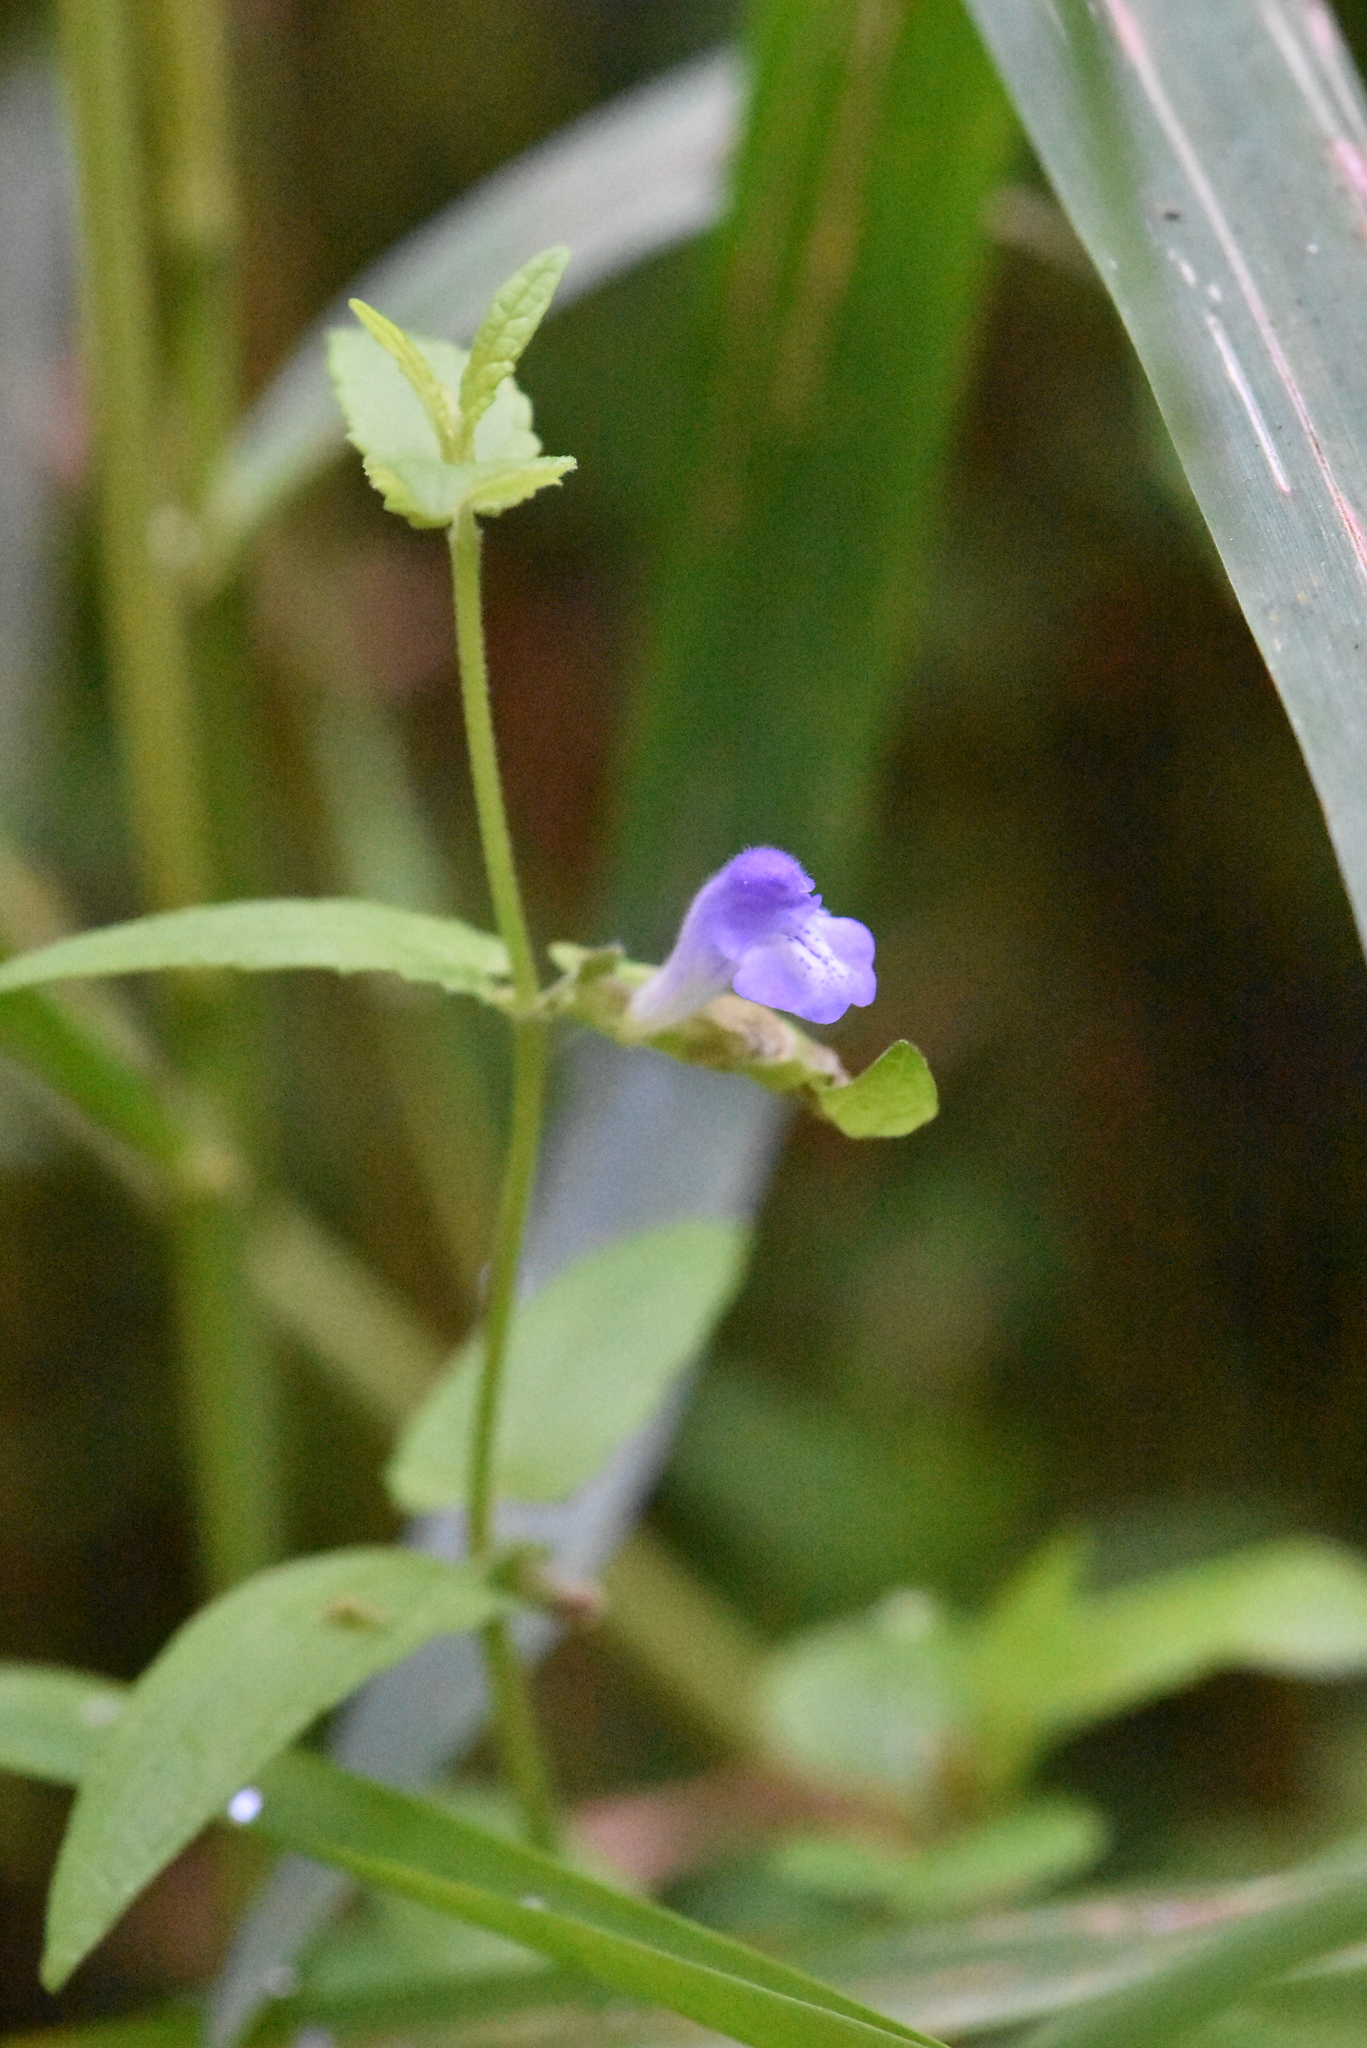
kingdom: Plantae
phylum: Tracheophyta
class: Magnoliopsida
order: Lamiales
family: Lamiaceae
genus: Scutellaria
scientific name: Scutellaria galericulata
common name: Skullcap
